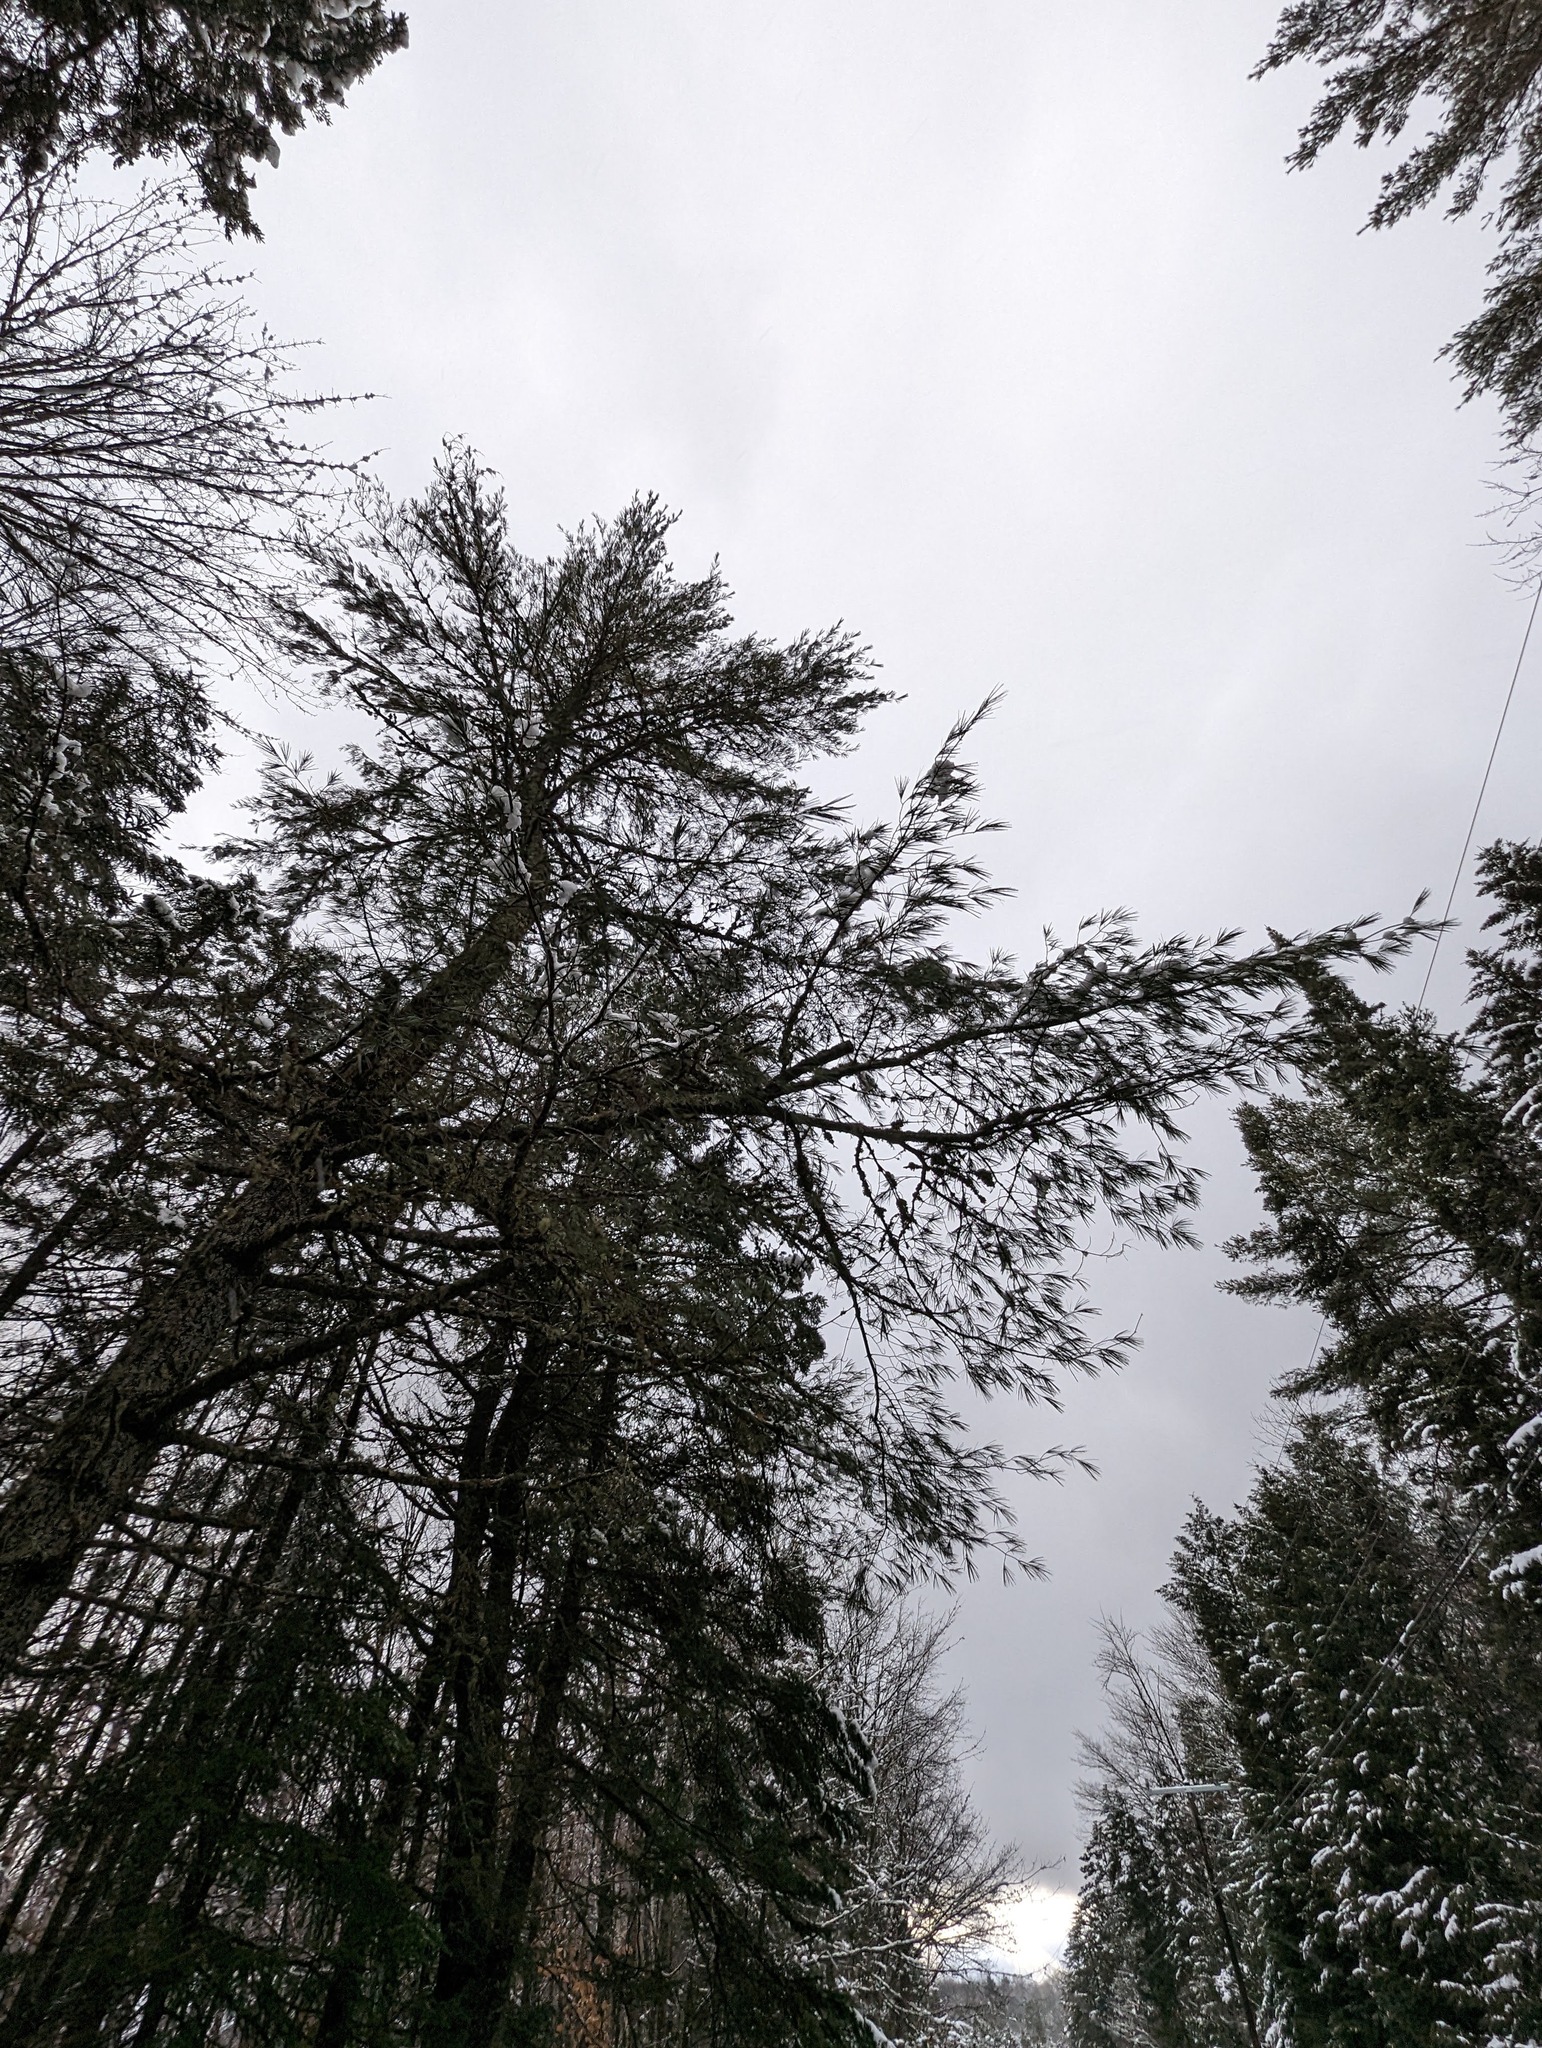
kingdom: Plantae
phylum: Tracheophyta
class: Pinopsida
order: Pinales
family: Pinaceae
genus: Pinus
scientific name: Pinus strobus
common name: Weymouth pine
